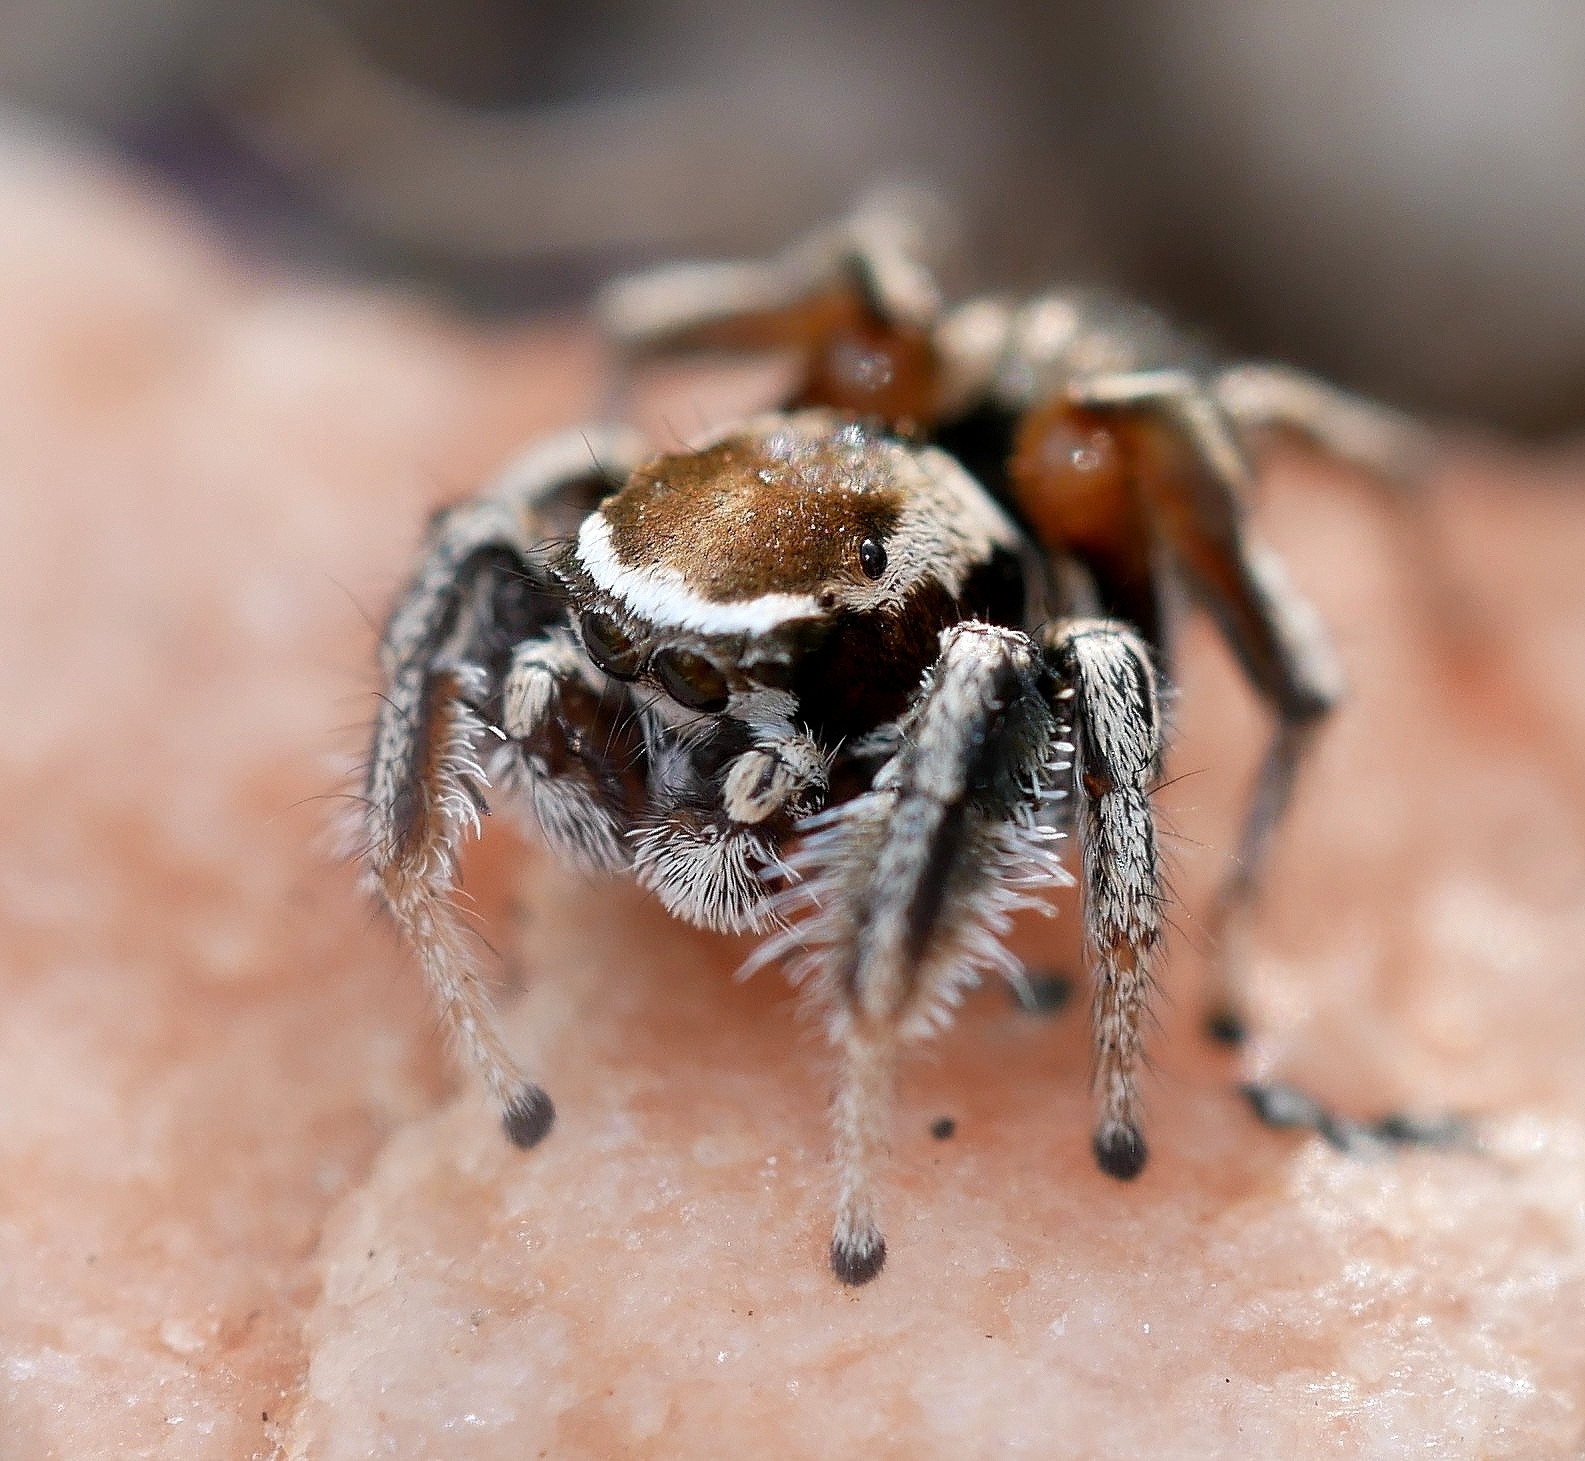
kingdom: Animalia
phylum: Arthropoda
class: Arachnida
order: Araneae
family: Salticidae
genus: Habronattus
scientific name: Habronattus clypeatus
